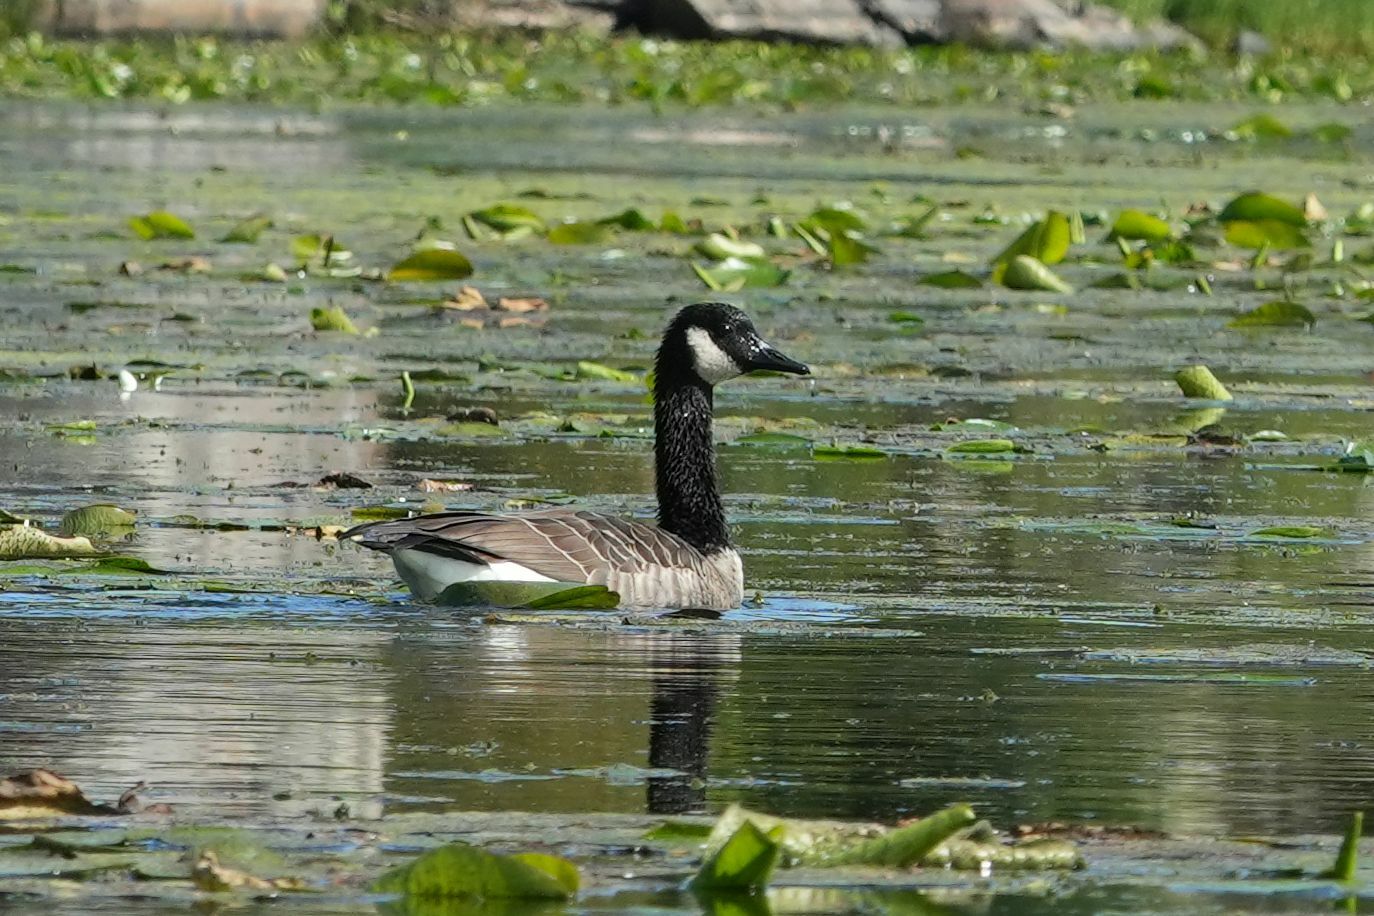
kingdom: Animalia
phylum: Chordata
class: Aves
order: Anseriformes
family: Anatidae
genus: Branta
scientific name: Branta canadensis
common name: Canada goose
